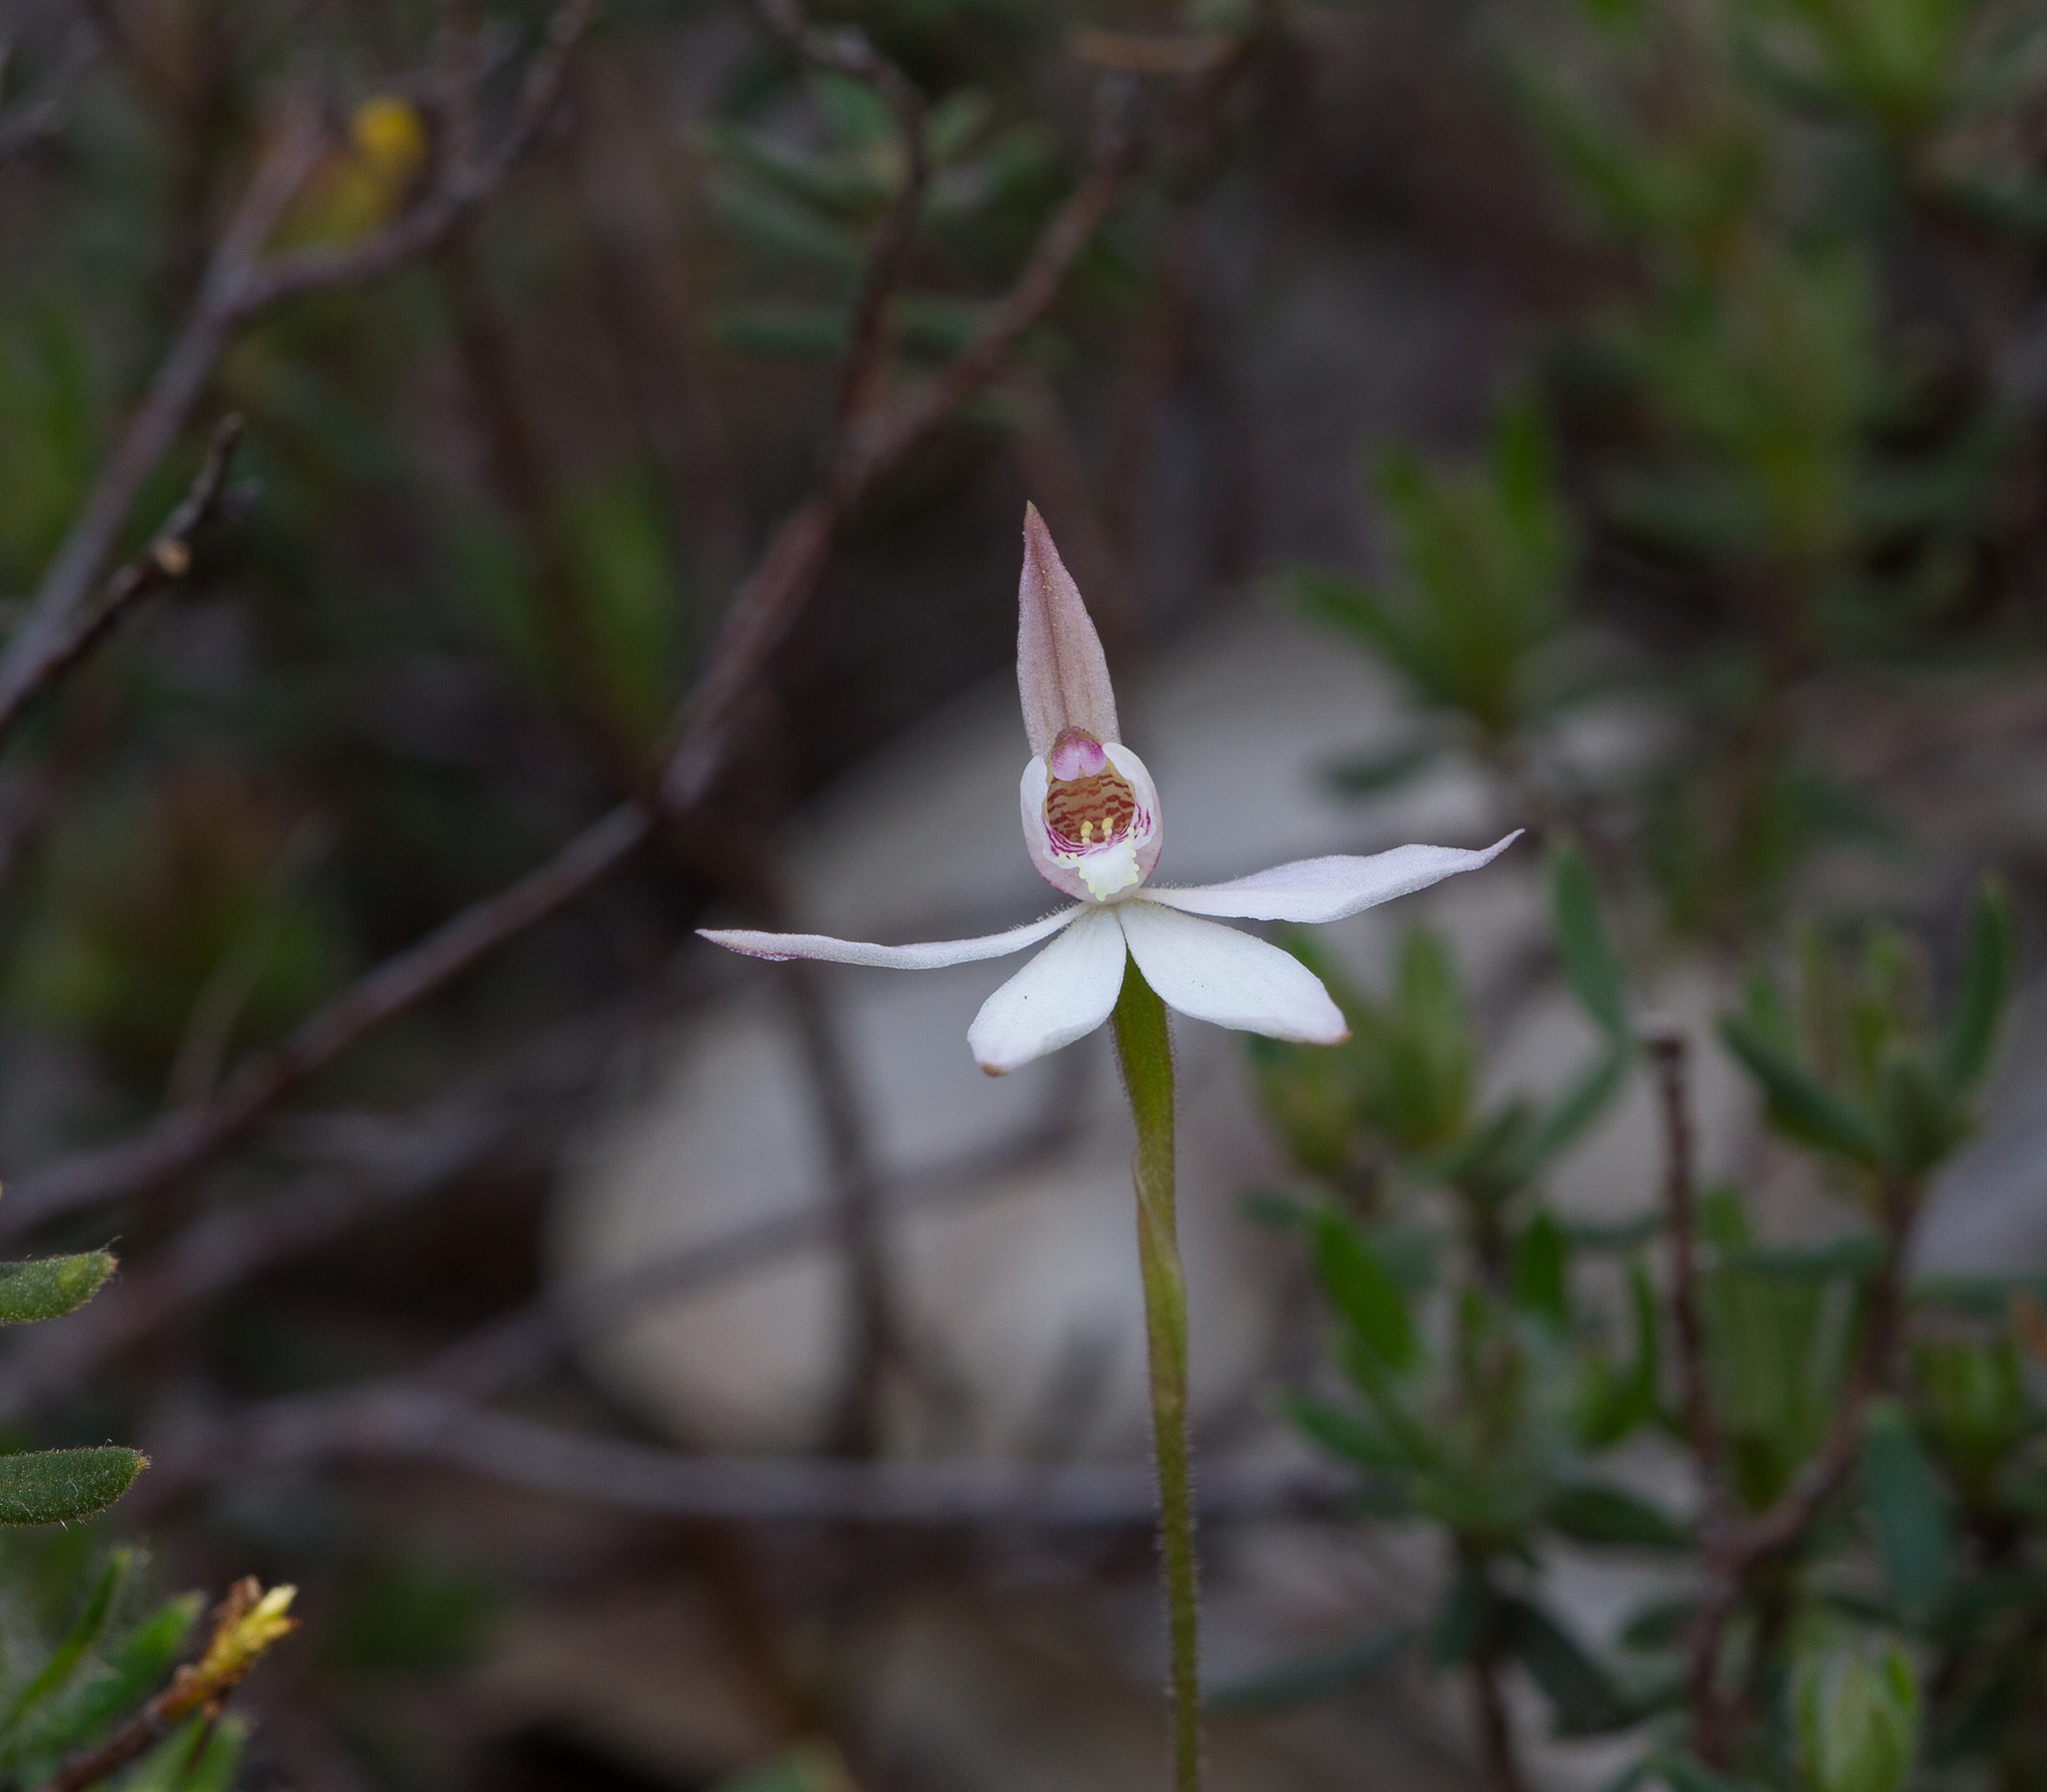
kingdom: Plantae
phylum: Tracheophyta
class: Liliopsida
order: Asparagales
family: Orchidaceae
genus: Caladenia
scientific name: Caladenia carnea
